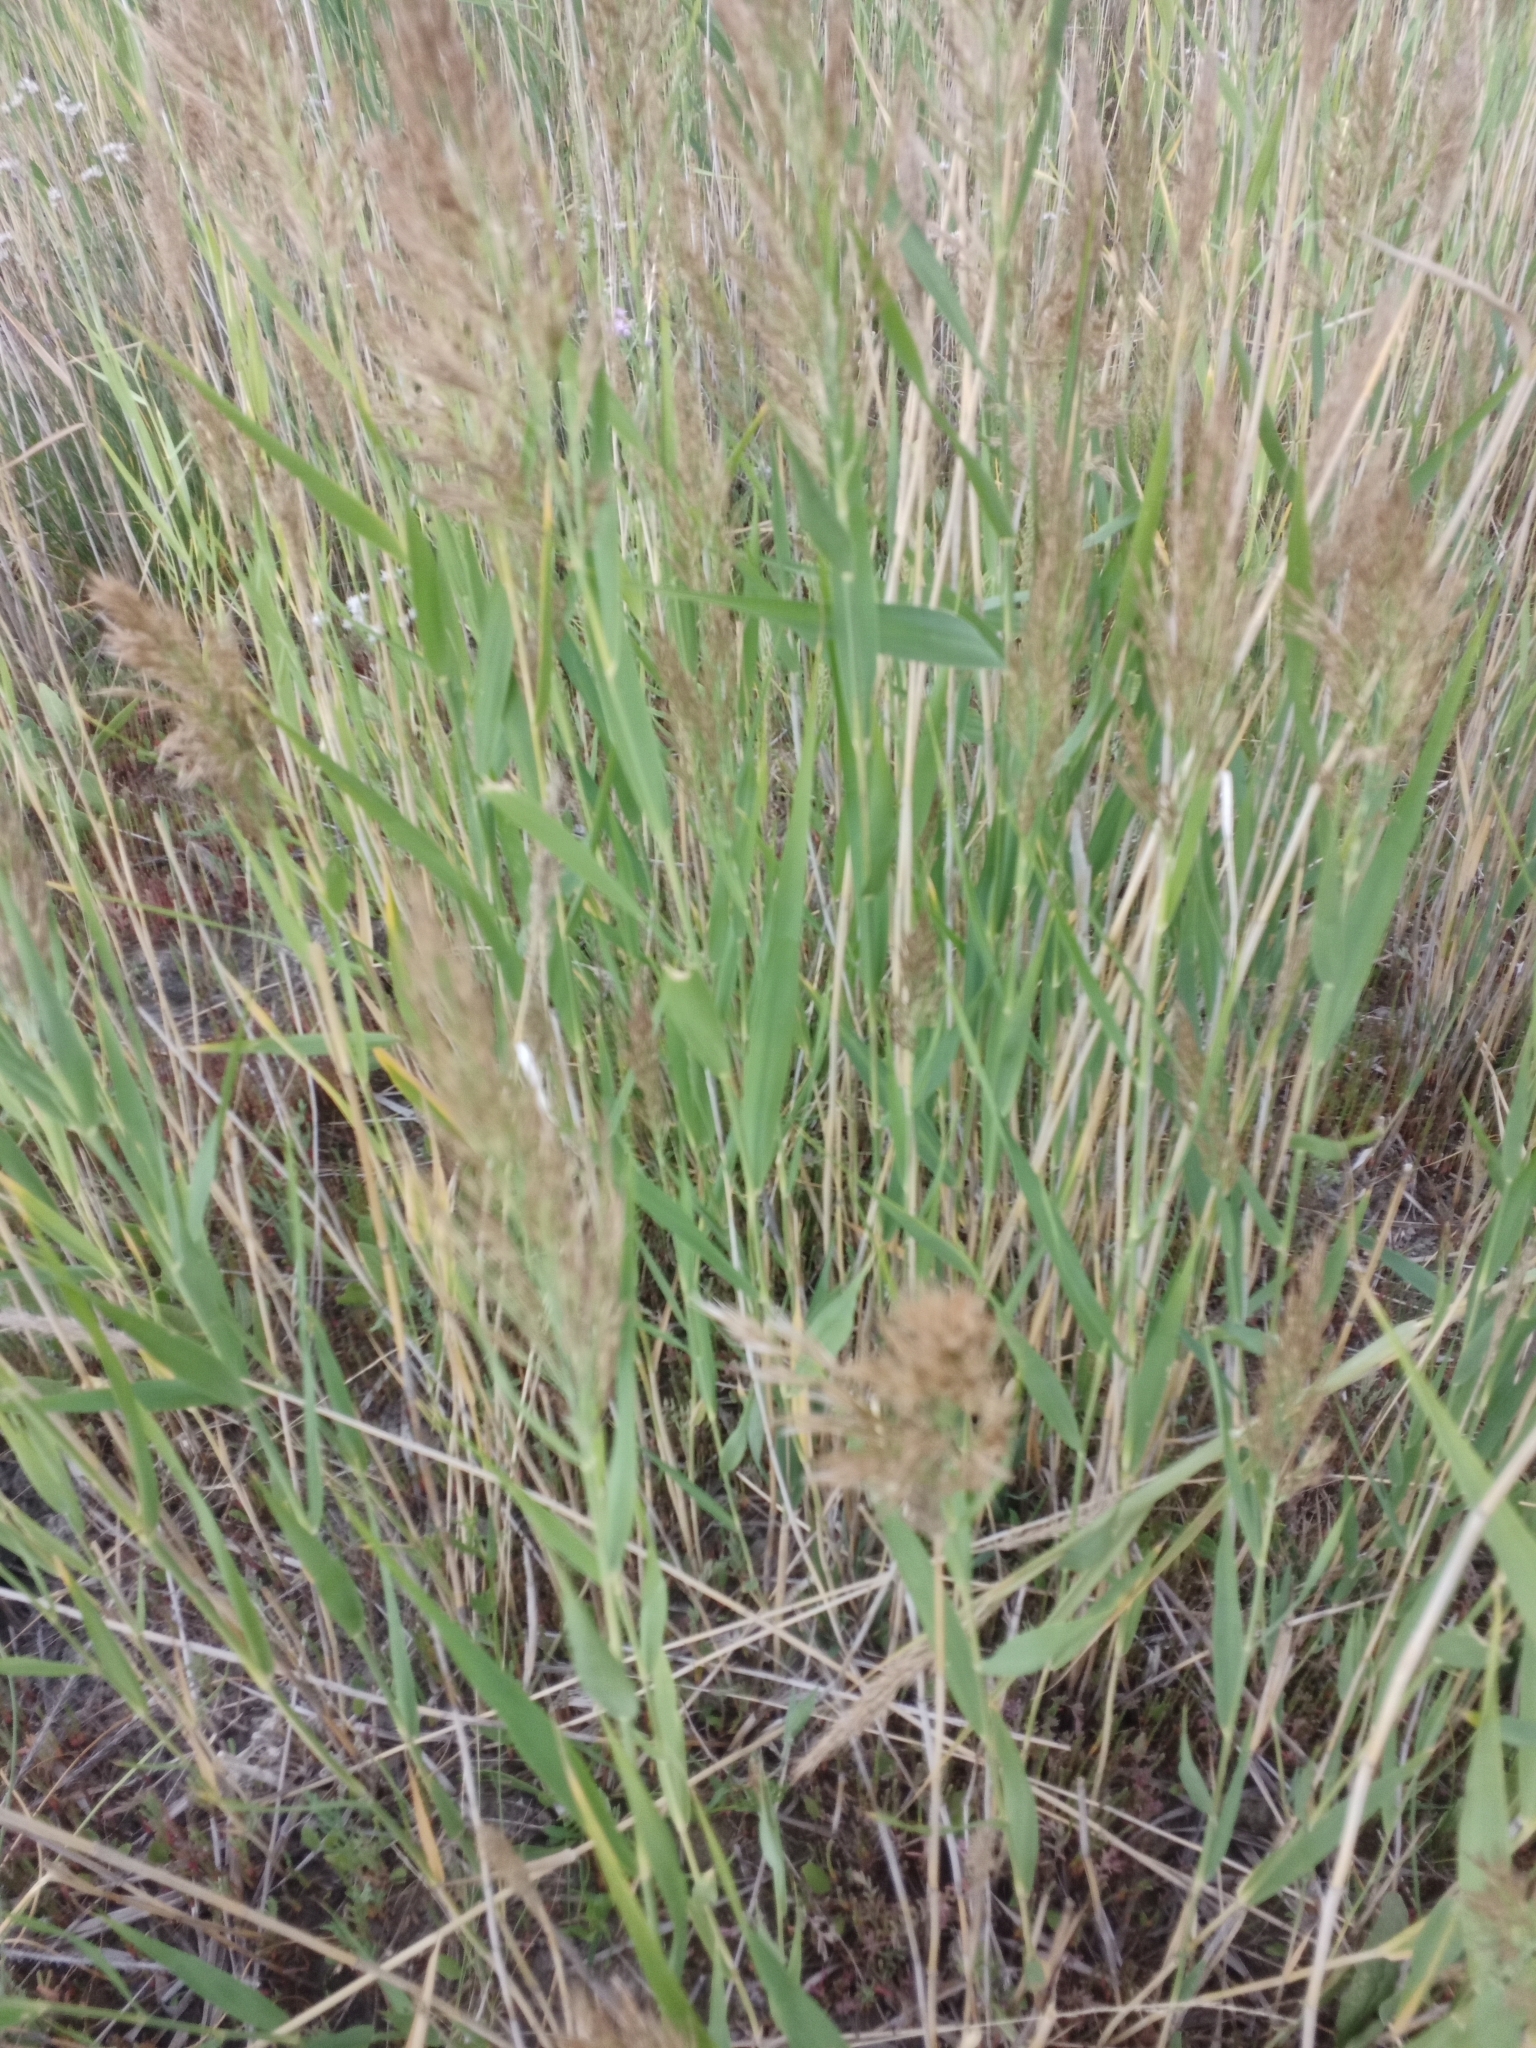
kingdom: Plantae
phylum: Tracheophyta
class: Liliopsida
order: Poales
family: Poaceae
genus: Phragmites
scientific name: Phragmites australis
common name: Common reed
